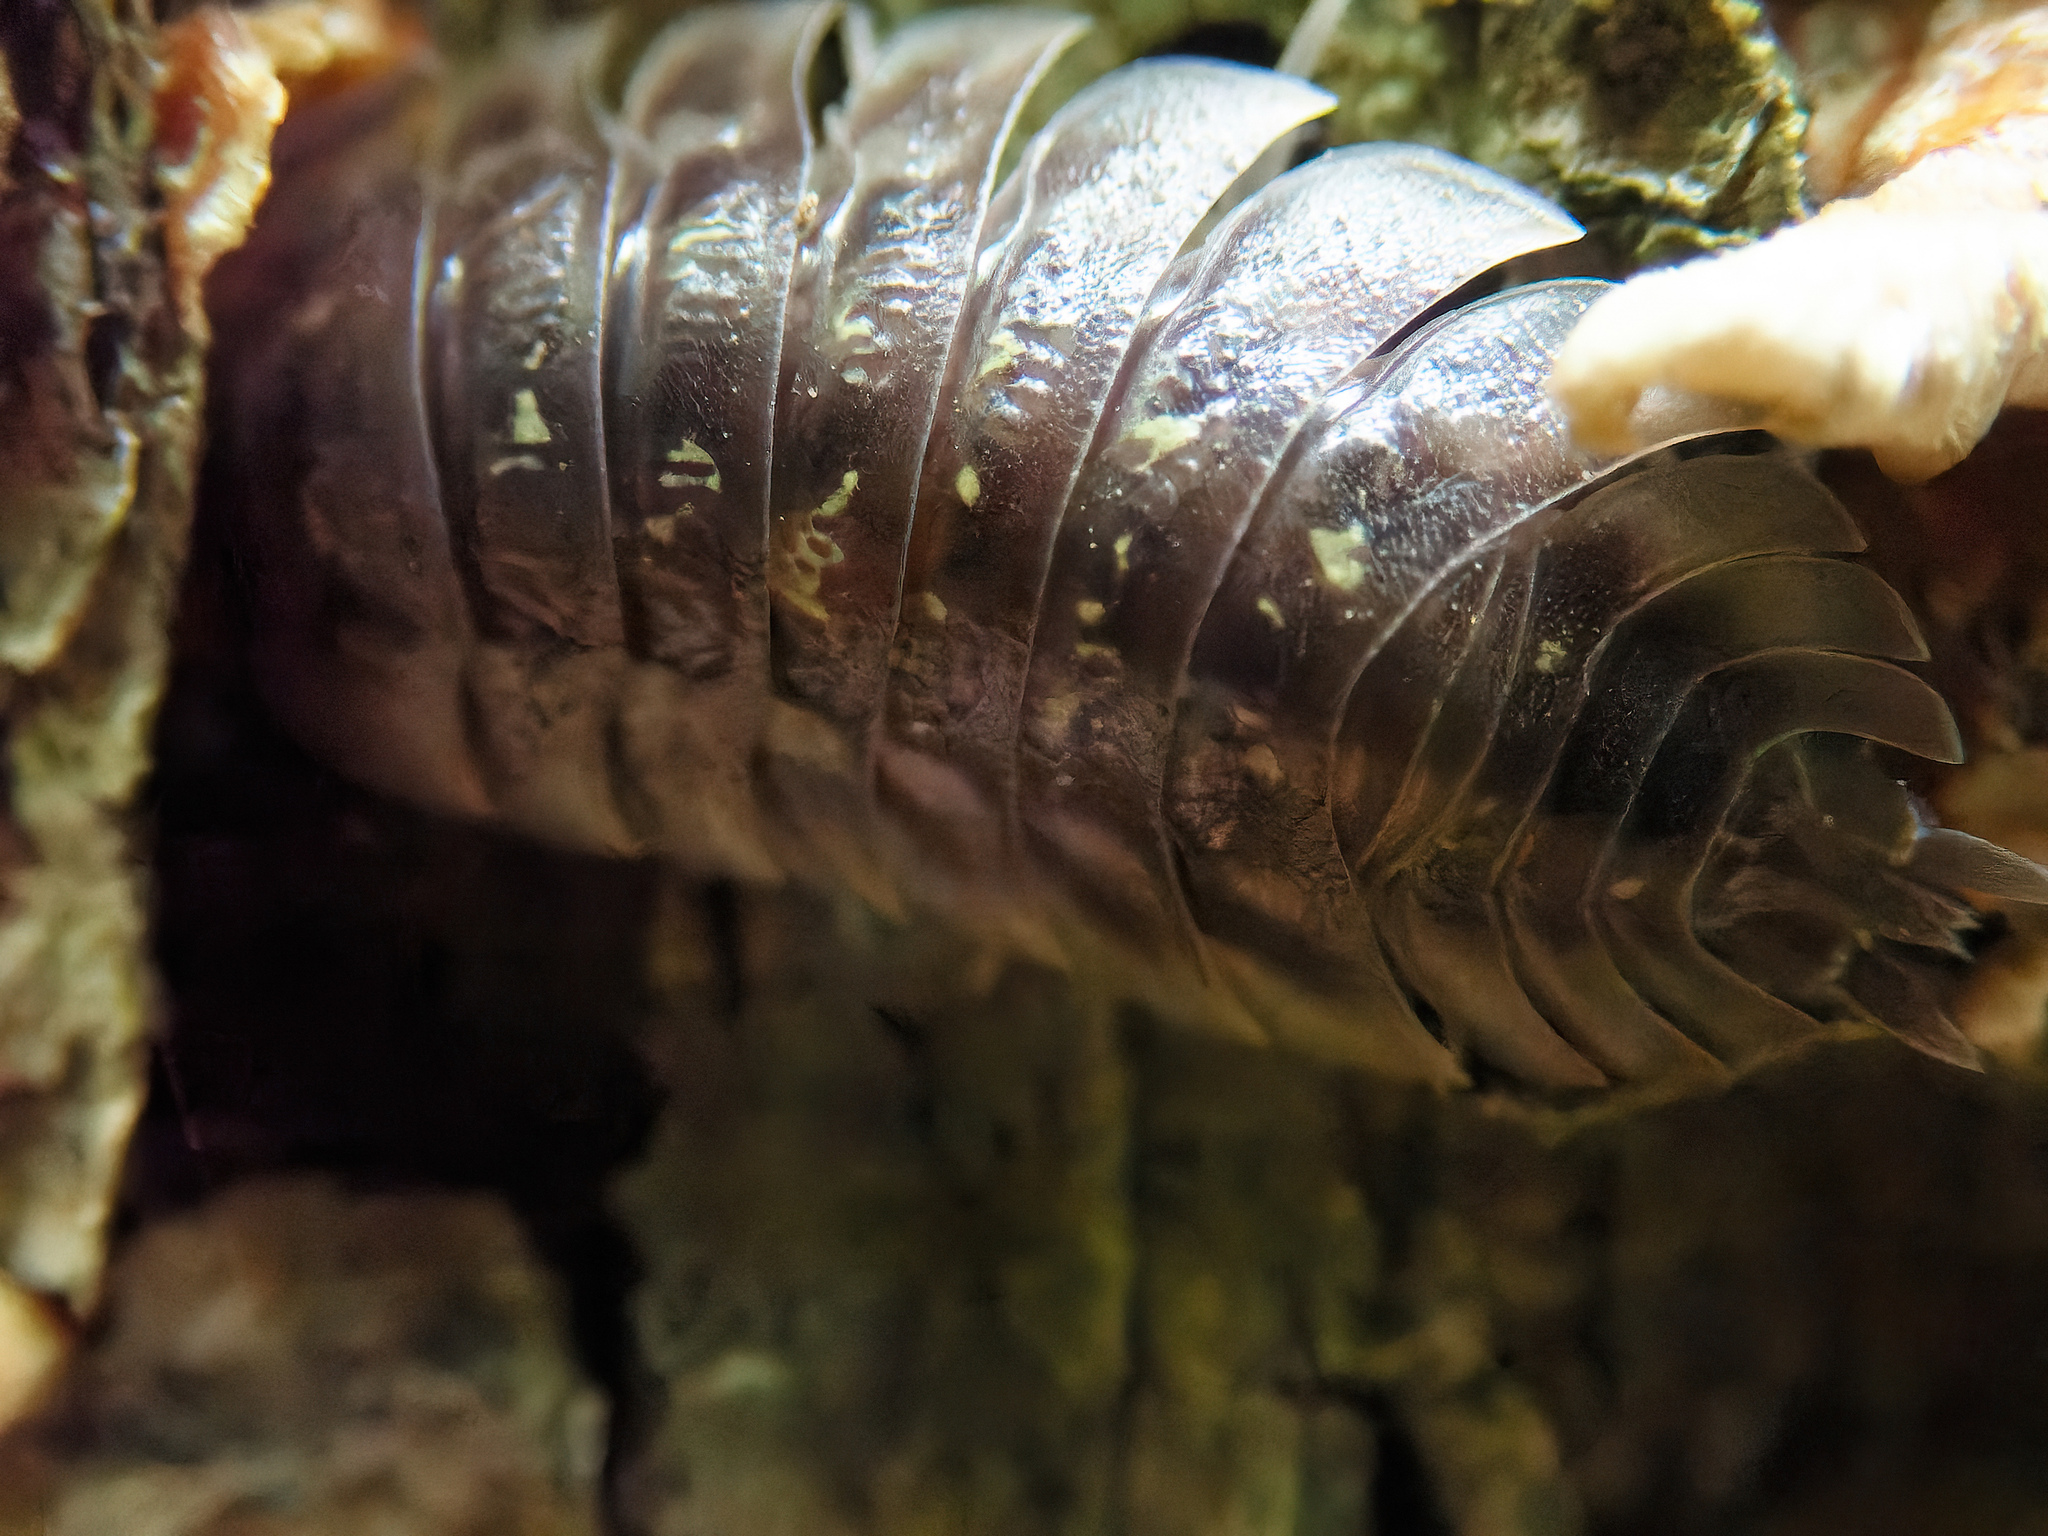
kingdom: Animalia
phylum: Arthropoda
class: Malacostraca
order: Isopoda
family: Oniscidae
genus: Oniscus
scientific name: Oniscus asellus
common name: Common shiny woodlouse
